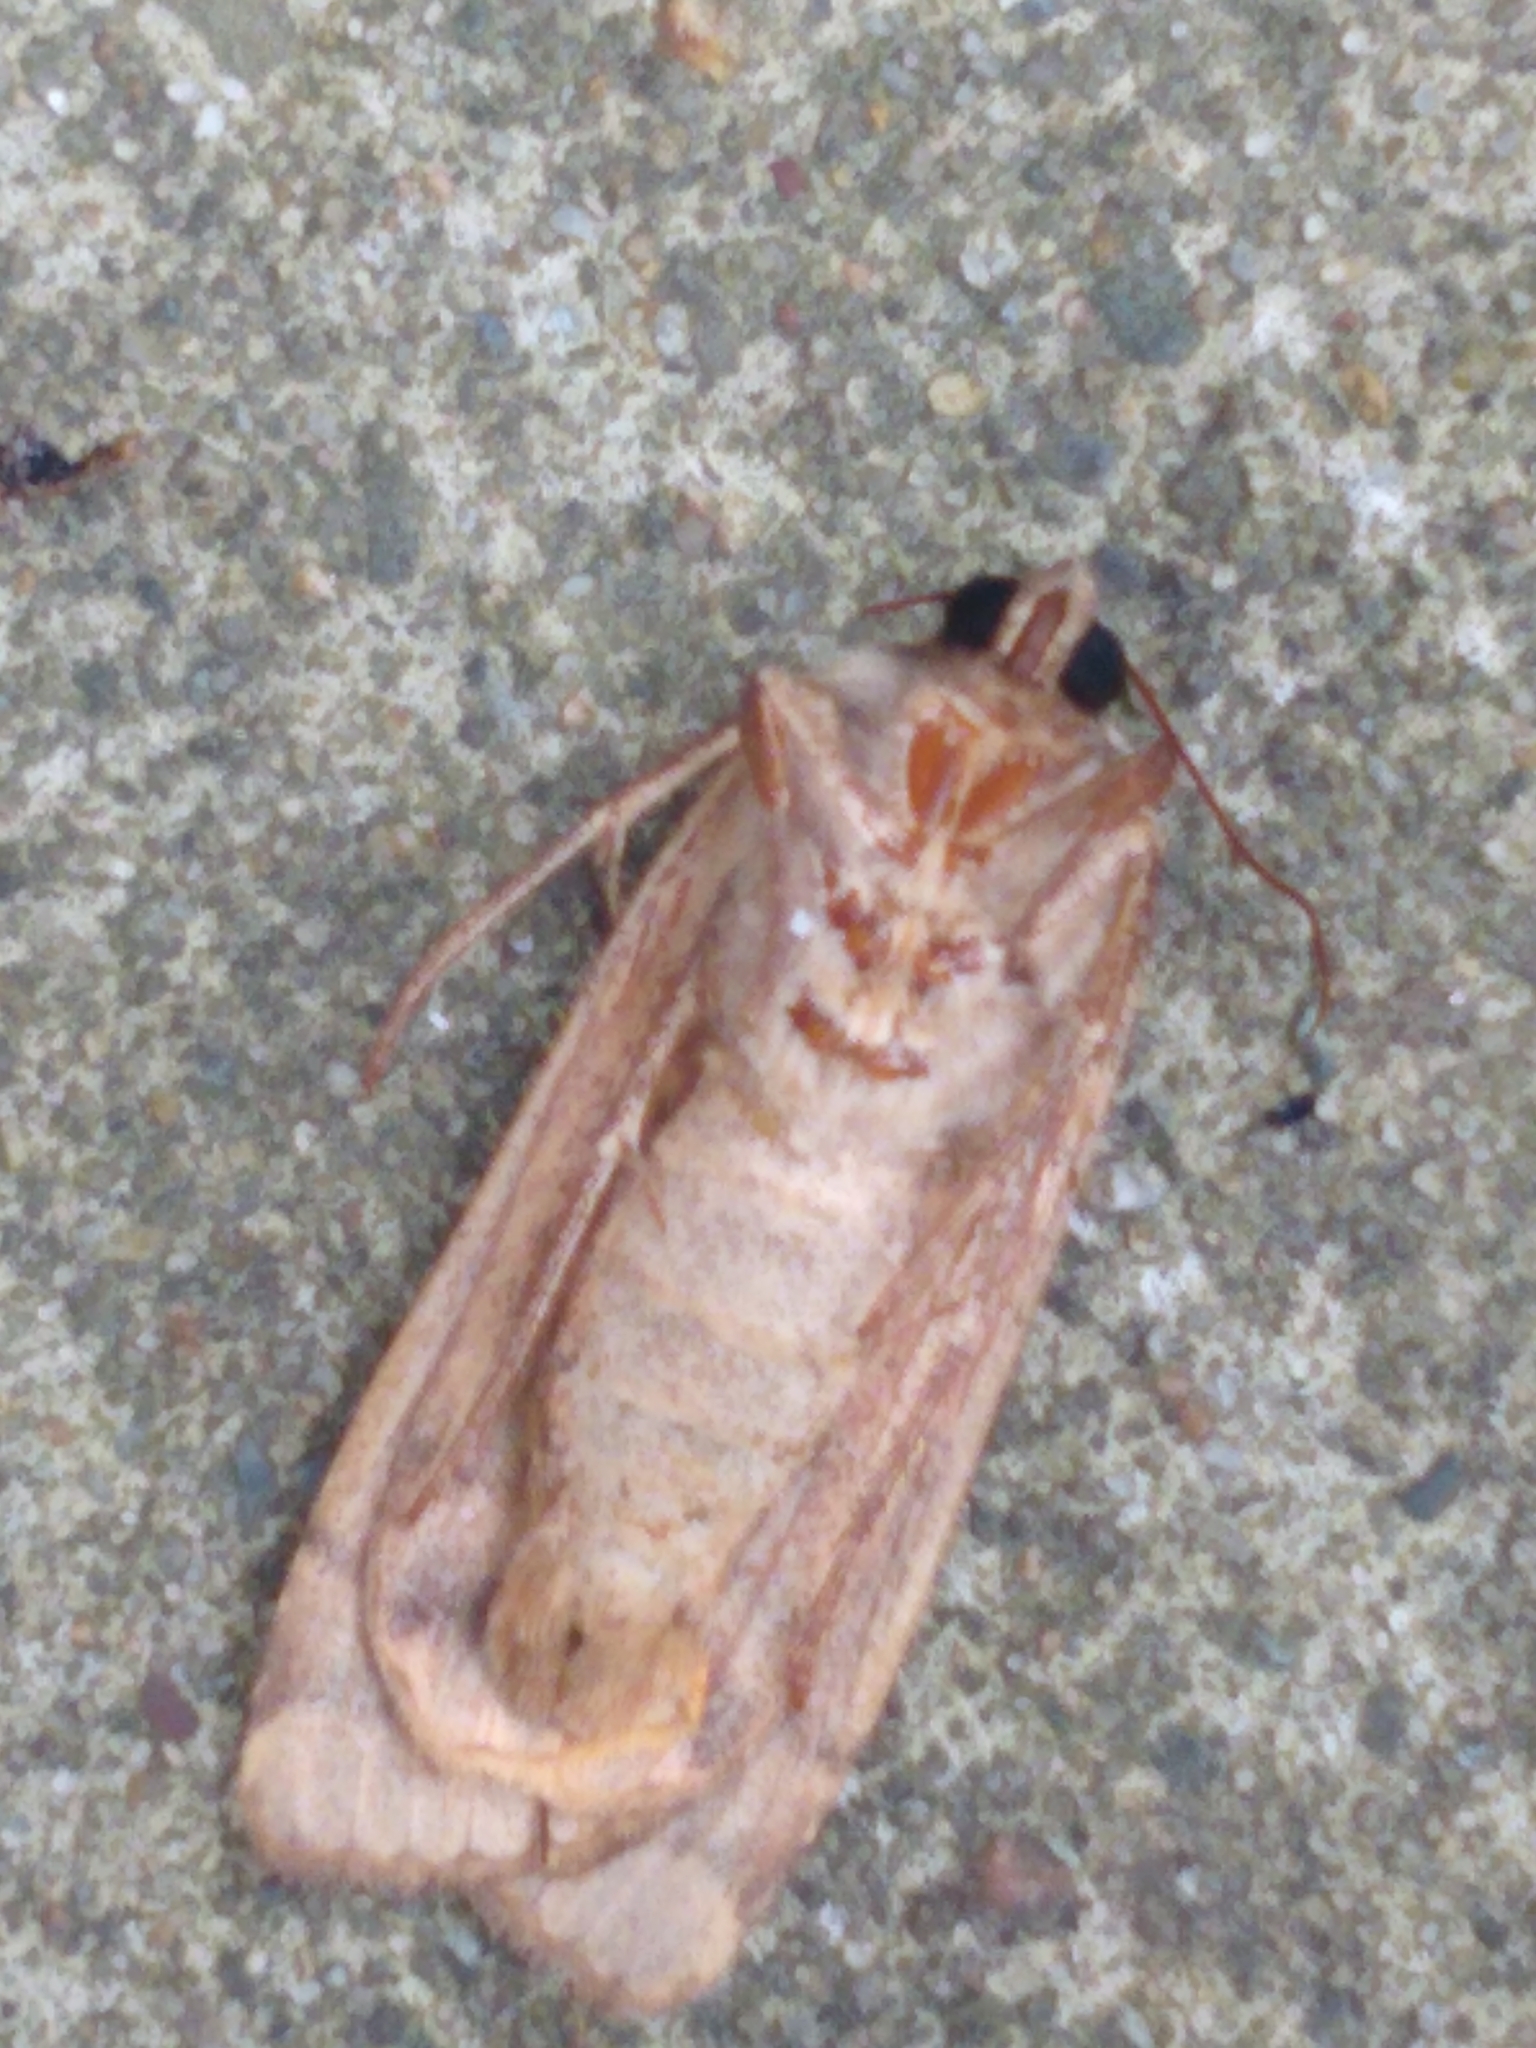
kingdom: Animalia
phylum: Arthropoda
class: Insecta
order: Lepidoptera
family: Noctuidae
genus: Noctua
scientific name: Noctua pronuba
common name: Large yellow underwing
